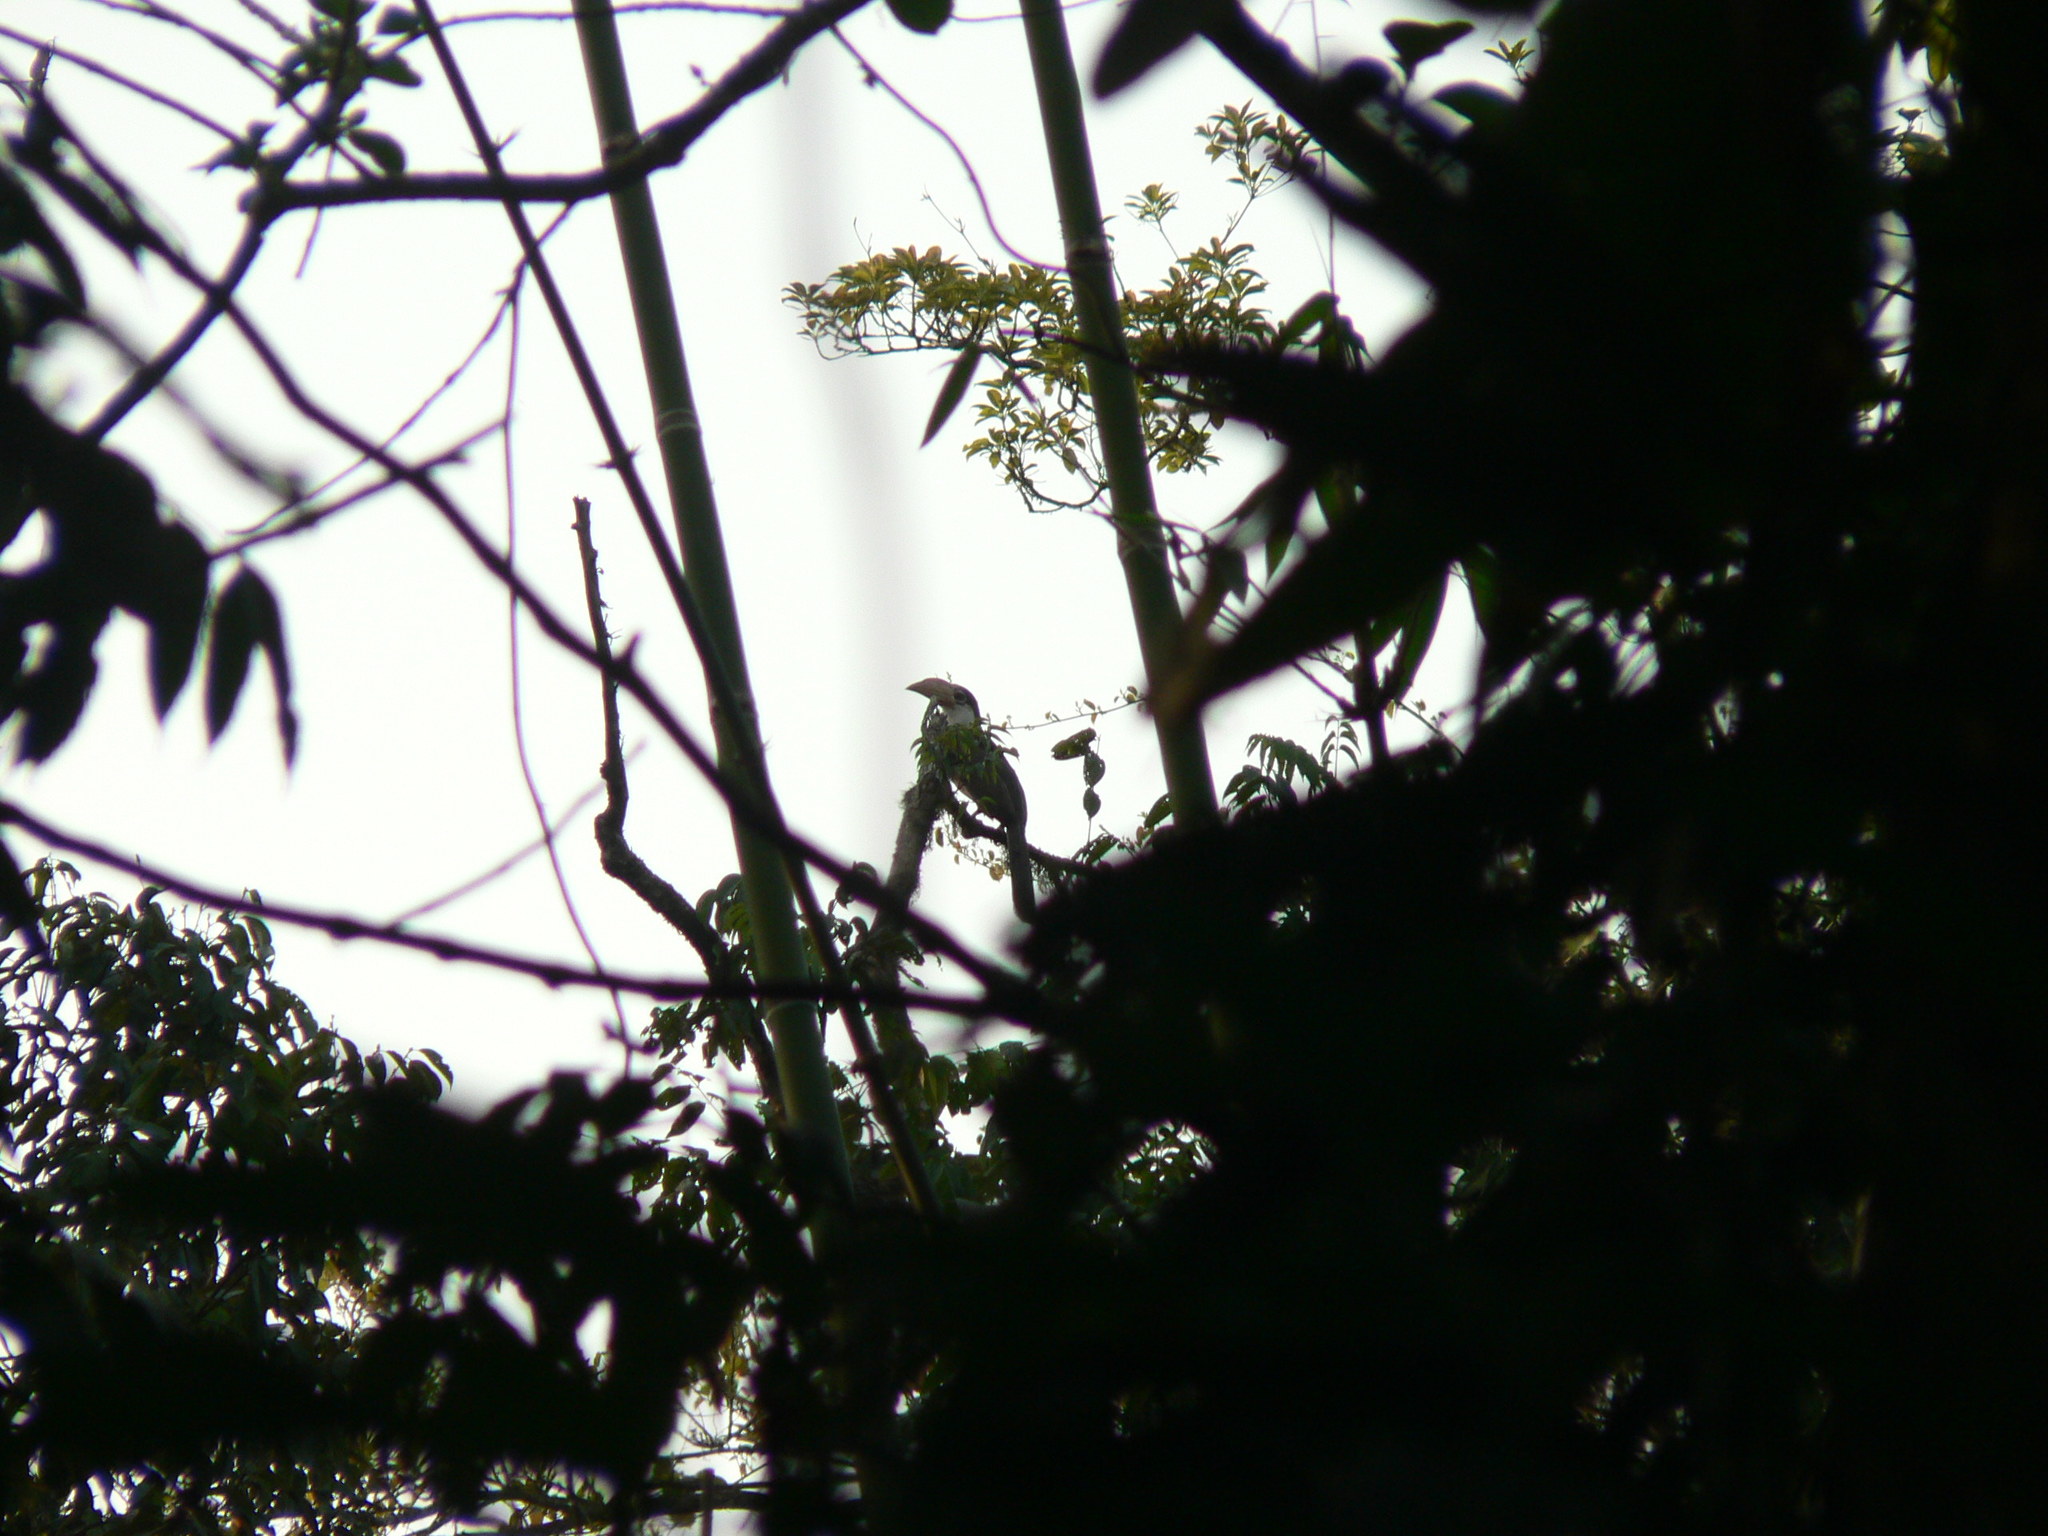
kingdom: Animalia
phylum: Chordata
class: Aves
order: Bucerotiformes
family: Bucerotidae
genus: Anorrhinus
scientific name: Anorrhinus austeni
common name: Austen's brown hornbill
